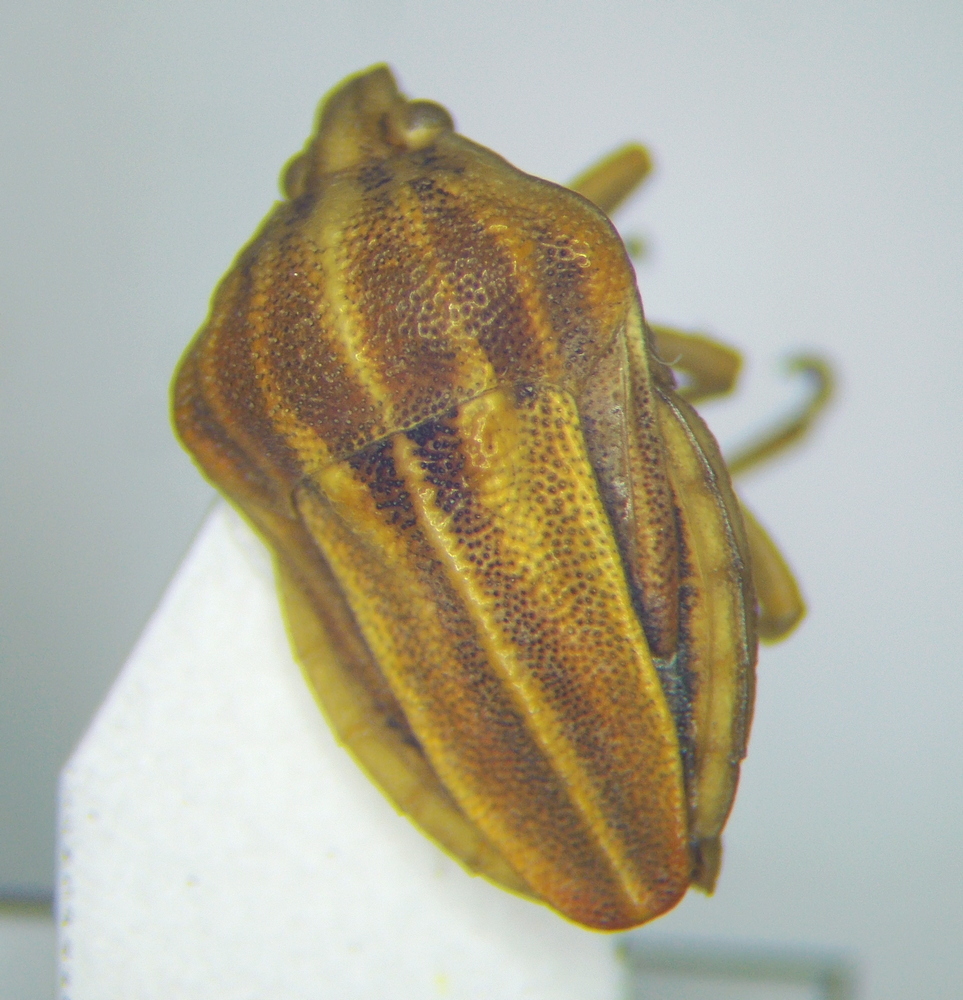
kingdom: Animalia
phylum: Arthropoda
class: Insecta
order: Hemiptera
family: Pentatomidae
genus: Tholagmus
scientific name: Tholagmus flavolineatus
